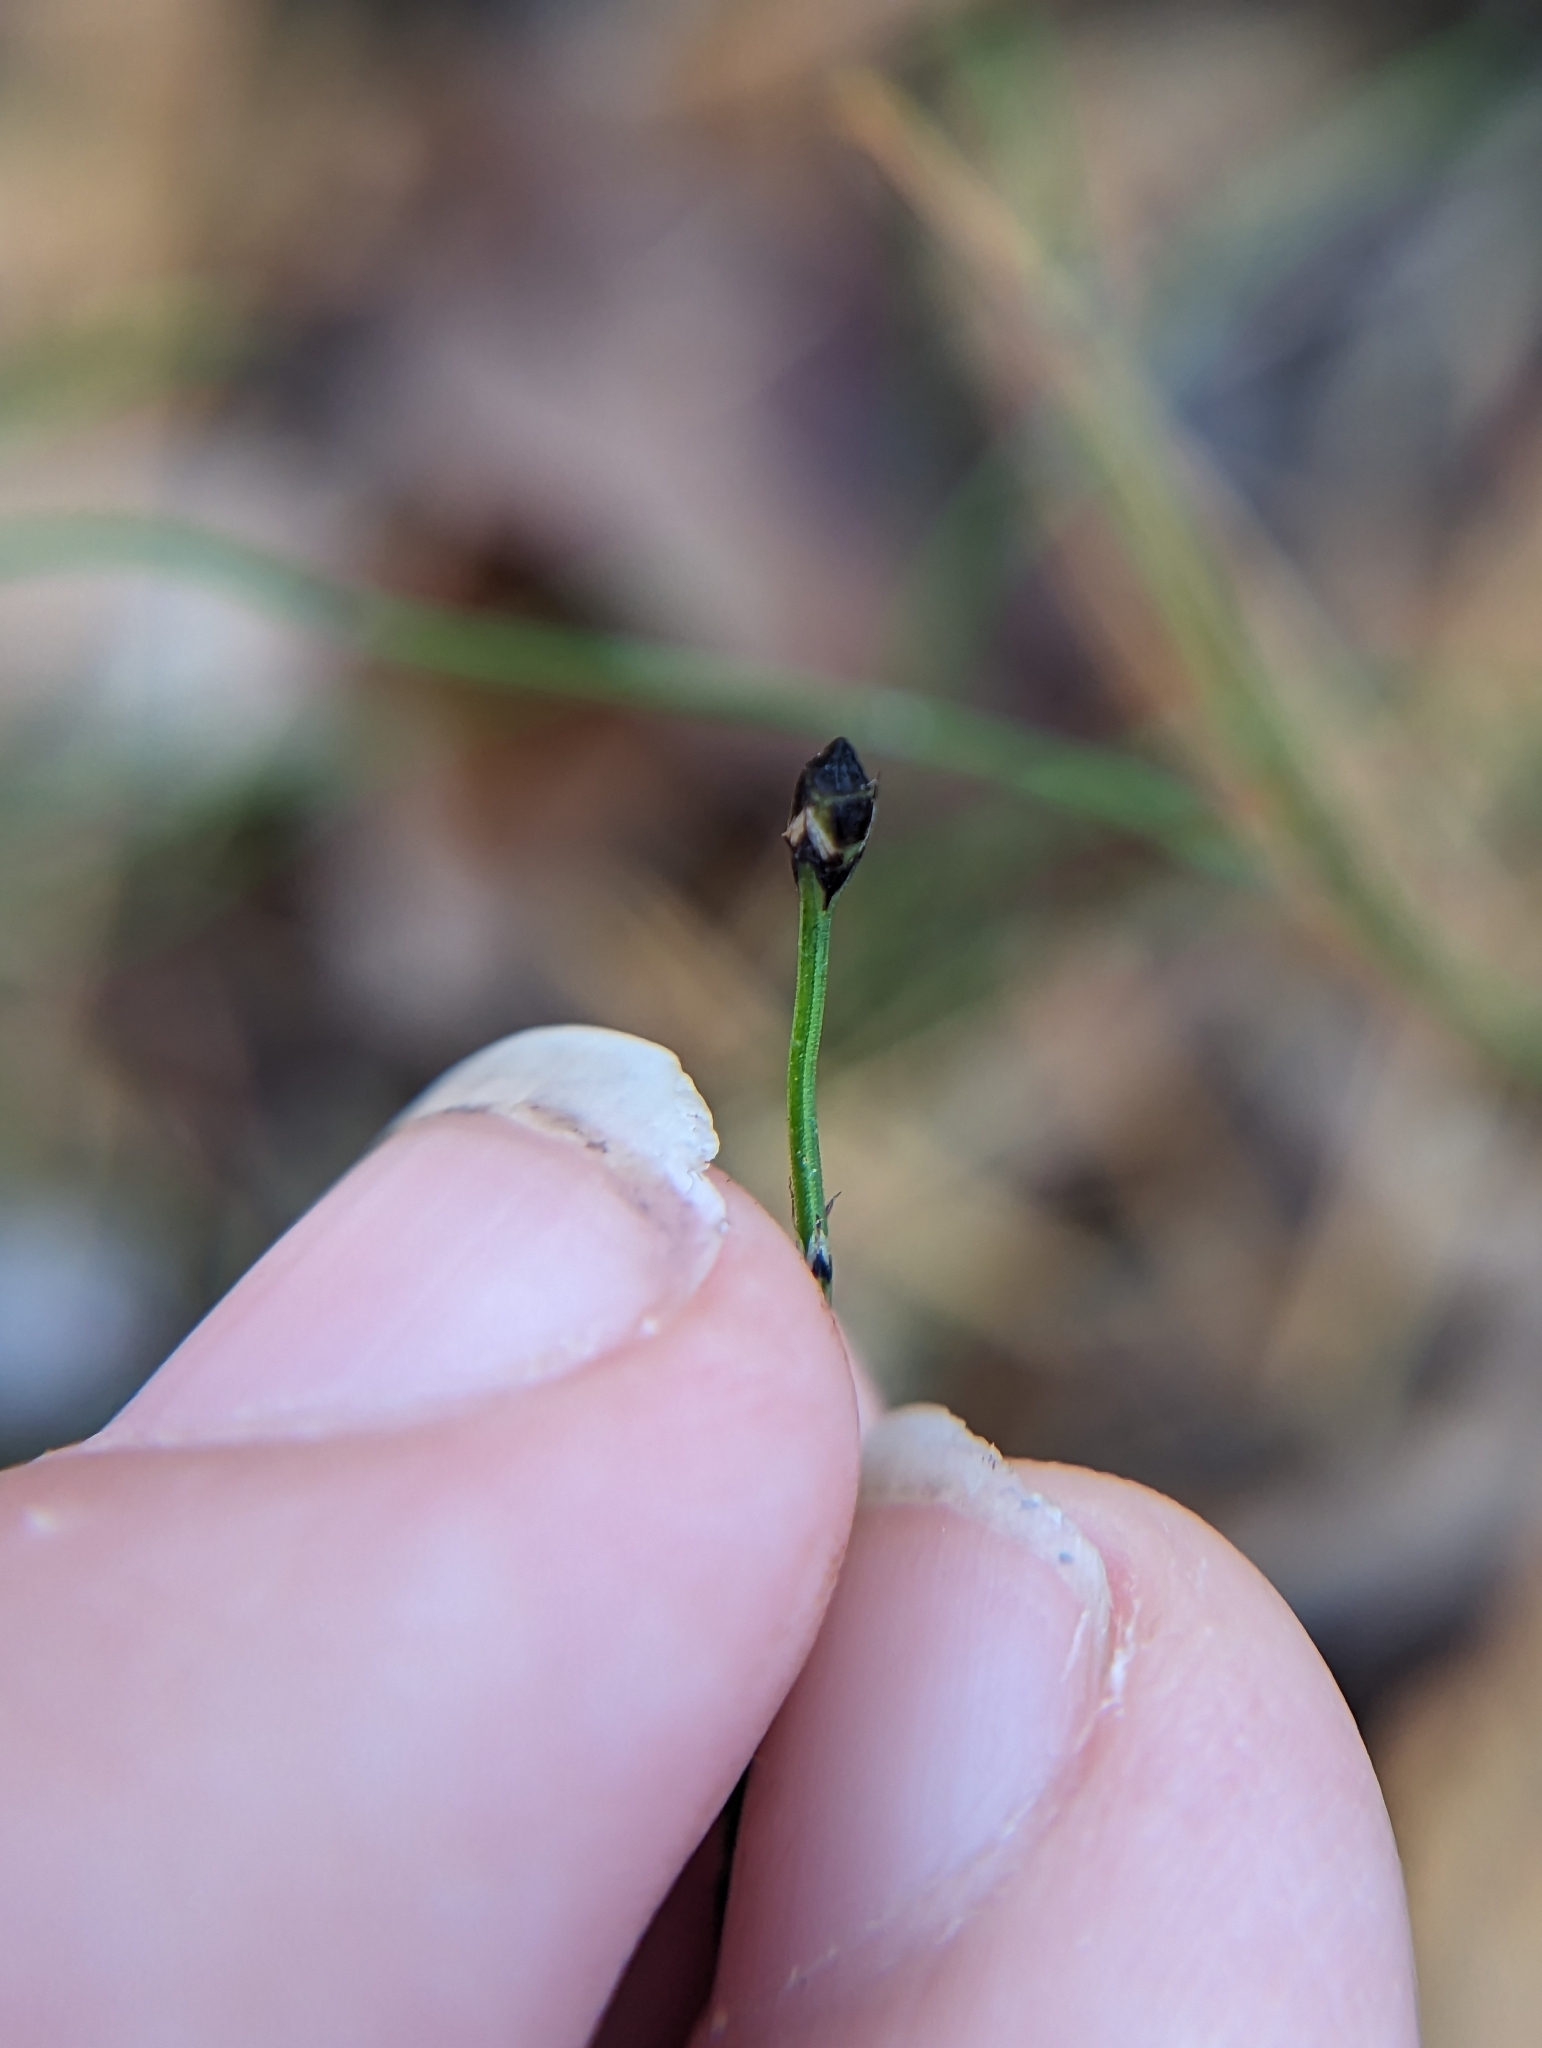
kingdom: Plantae
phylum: Tracheophyta
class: Polypodiopsida
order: Equisetales
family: Equisetaceae
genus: Equisetum
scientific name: Equisetum scirpoides
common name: Delicate horsetail
